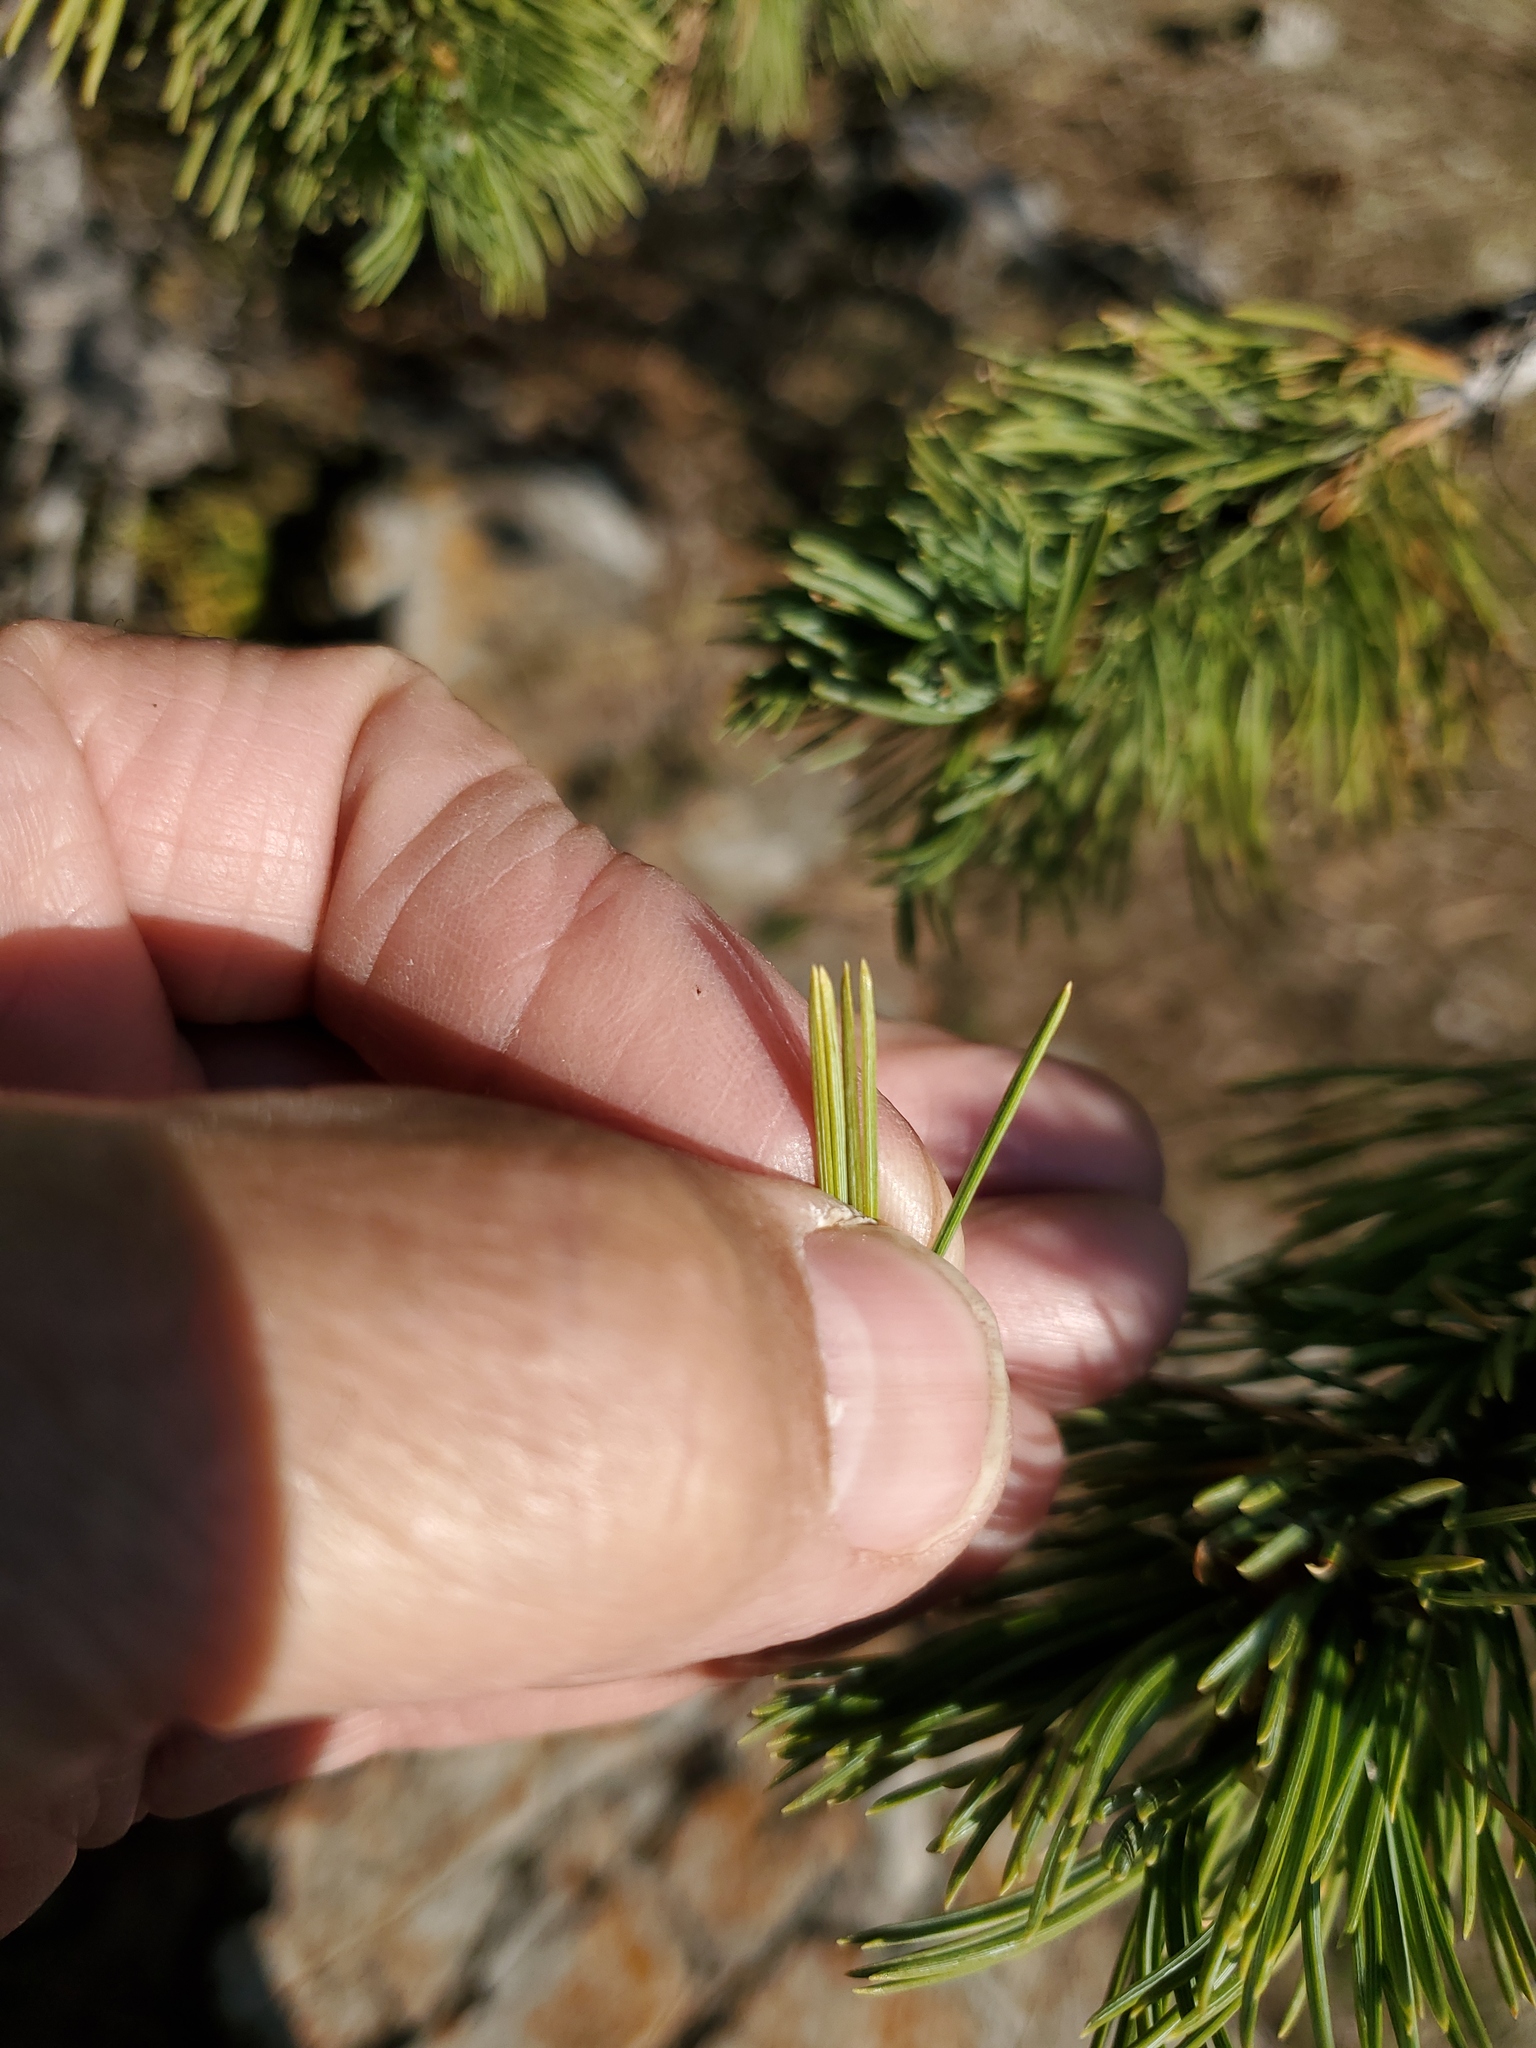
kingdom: Plantae
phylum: Tracheophyta
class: Pinopsida
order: Pinales
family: Pinaceae
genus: Pinus
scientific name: Pinus flexilis
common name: Limber pine
